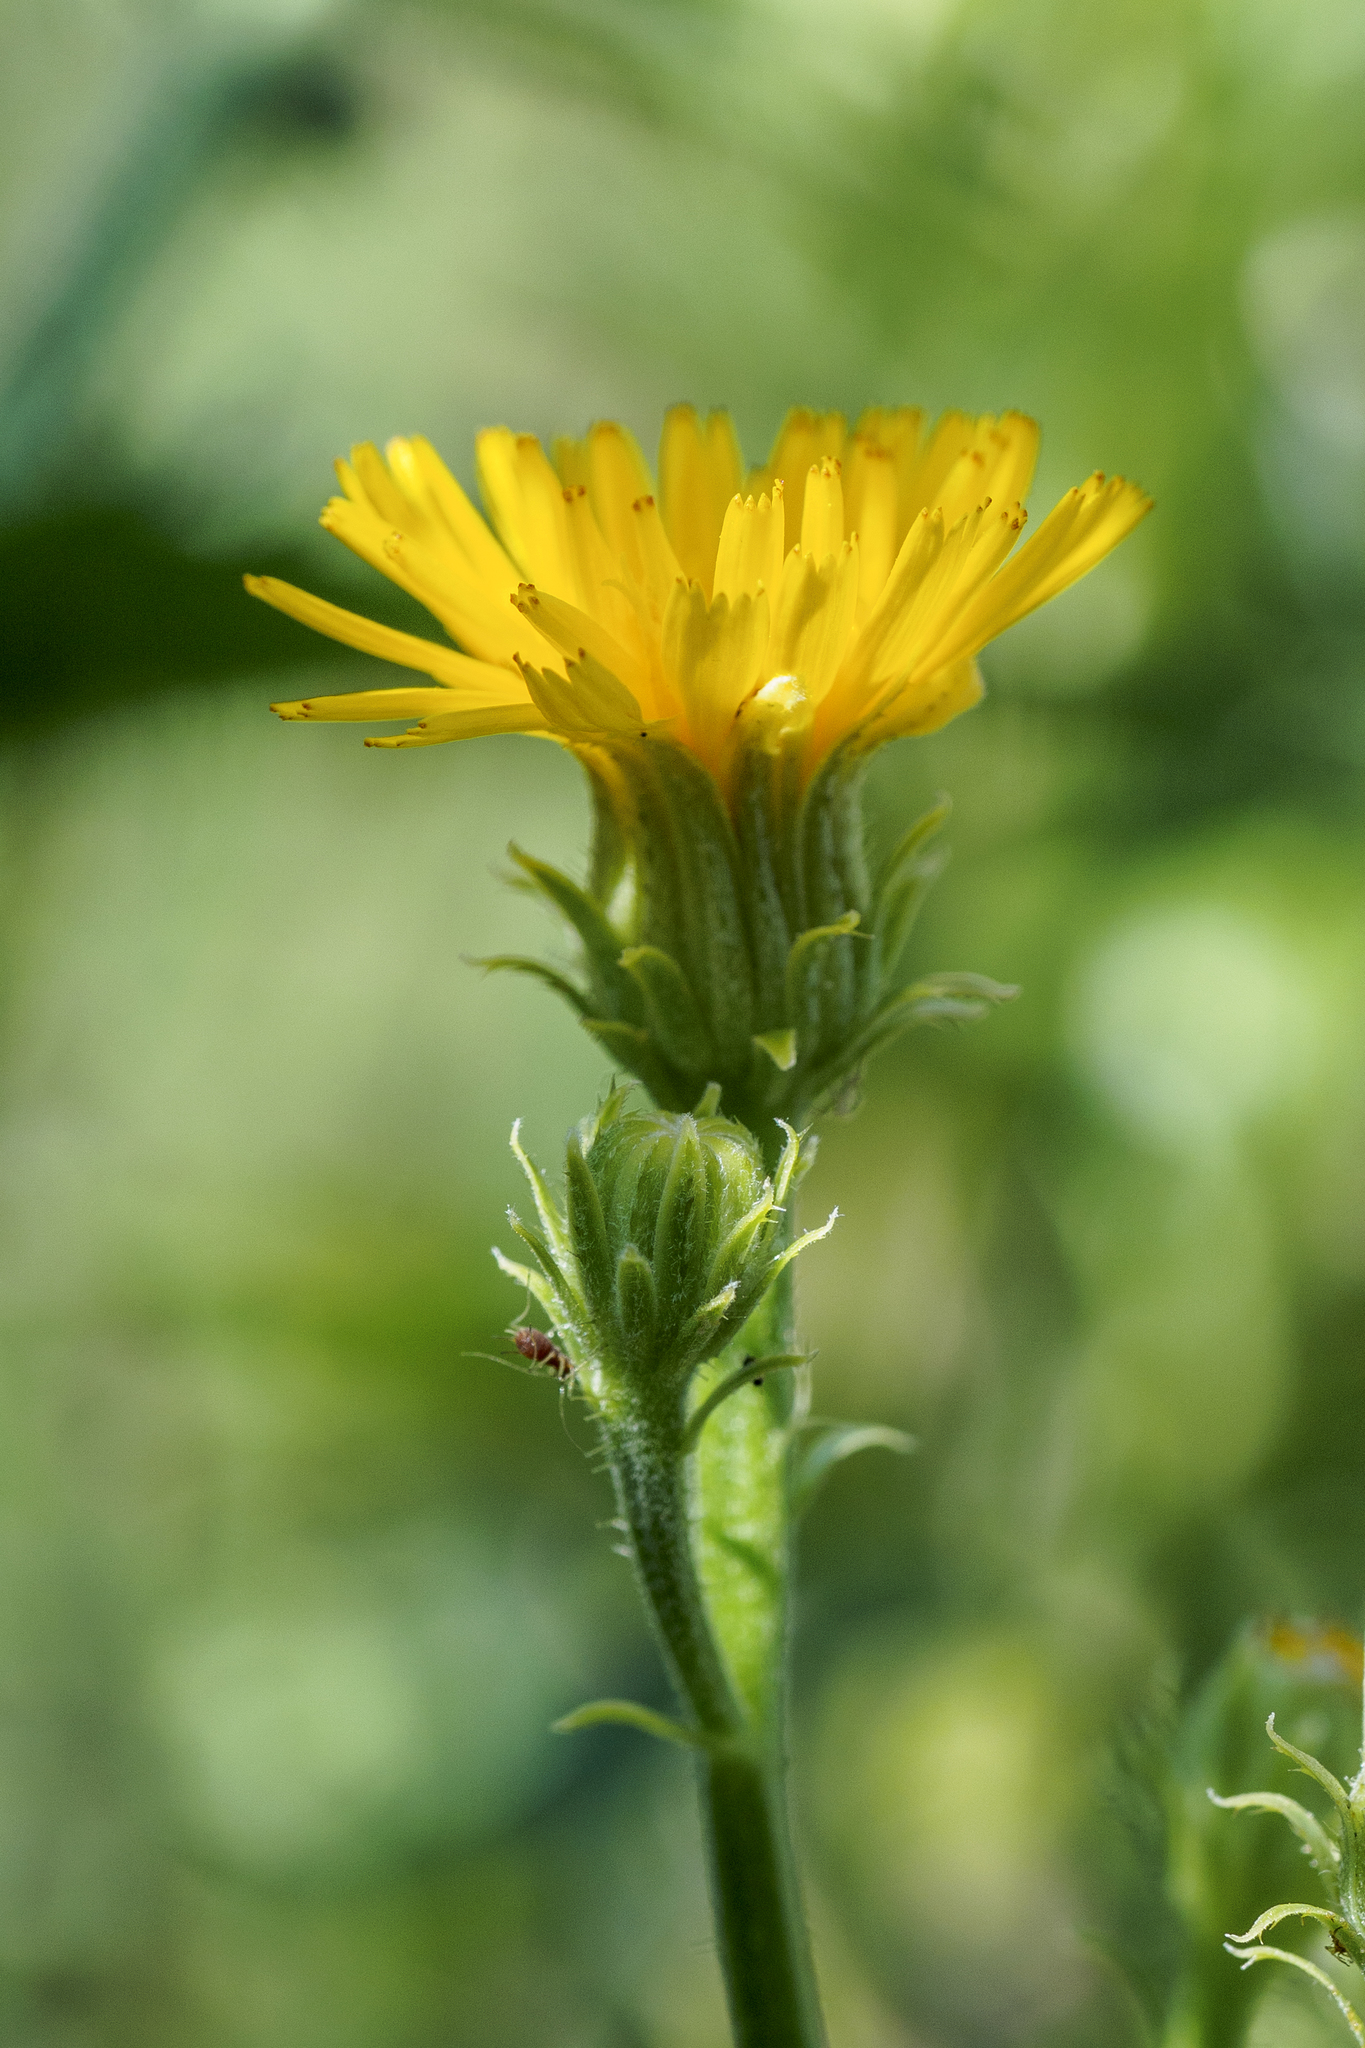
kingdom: Plantae
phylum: Tracheophyta
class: Magnoliopsida
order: Asterales
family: Asteraceae
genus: Picris
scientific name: Picris hieracioides
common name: Hawkweed oxtongue
